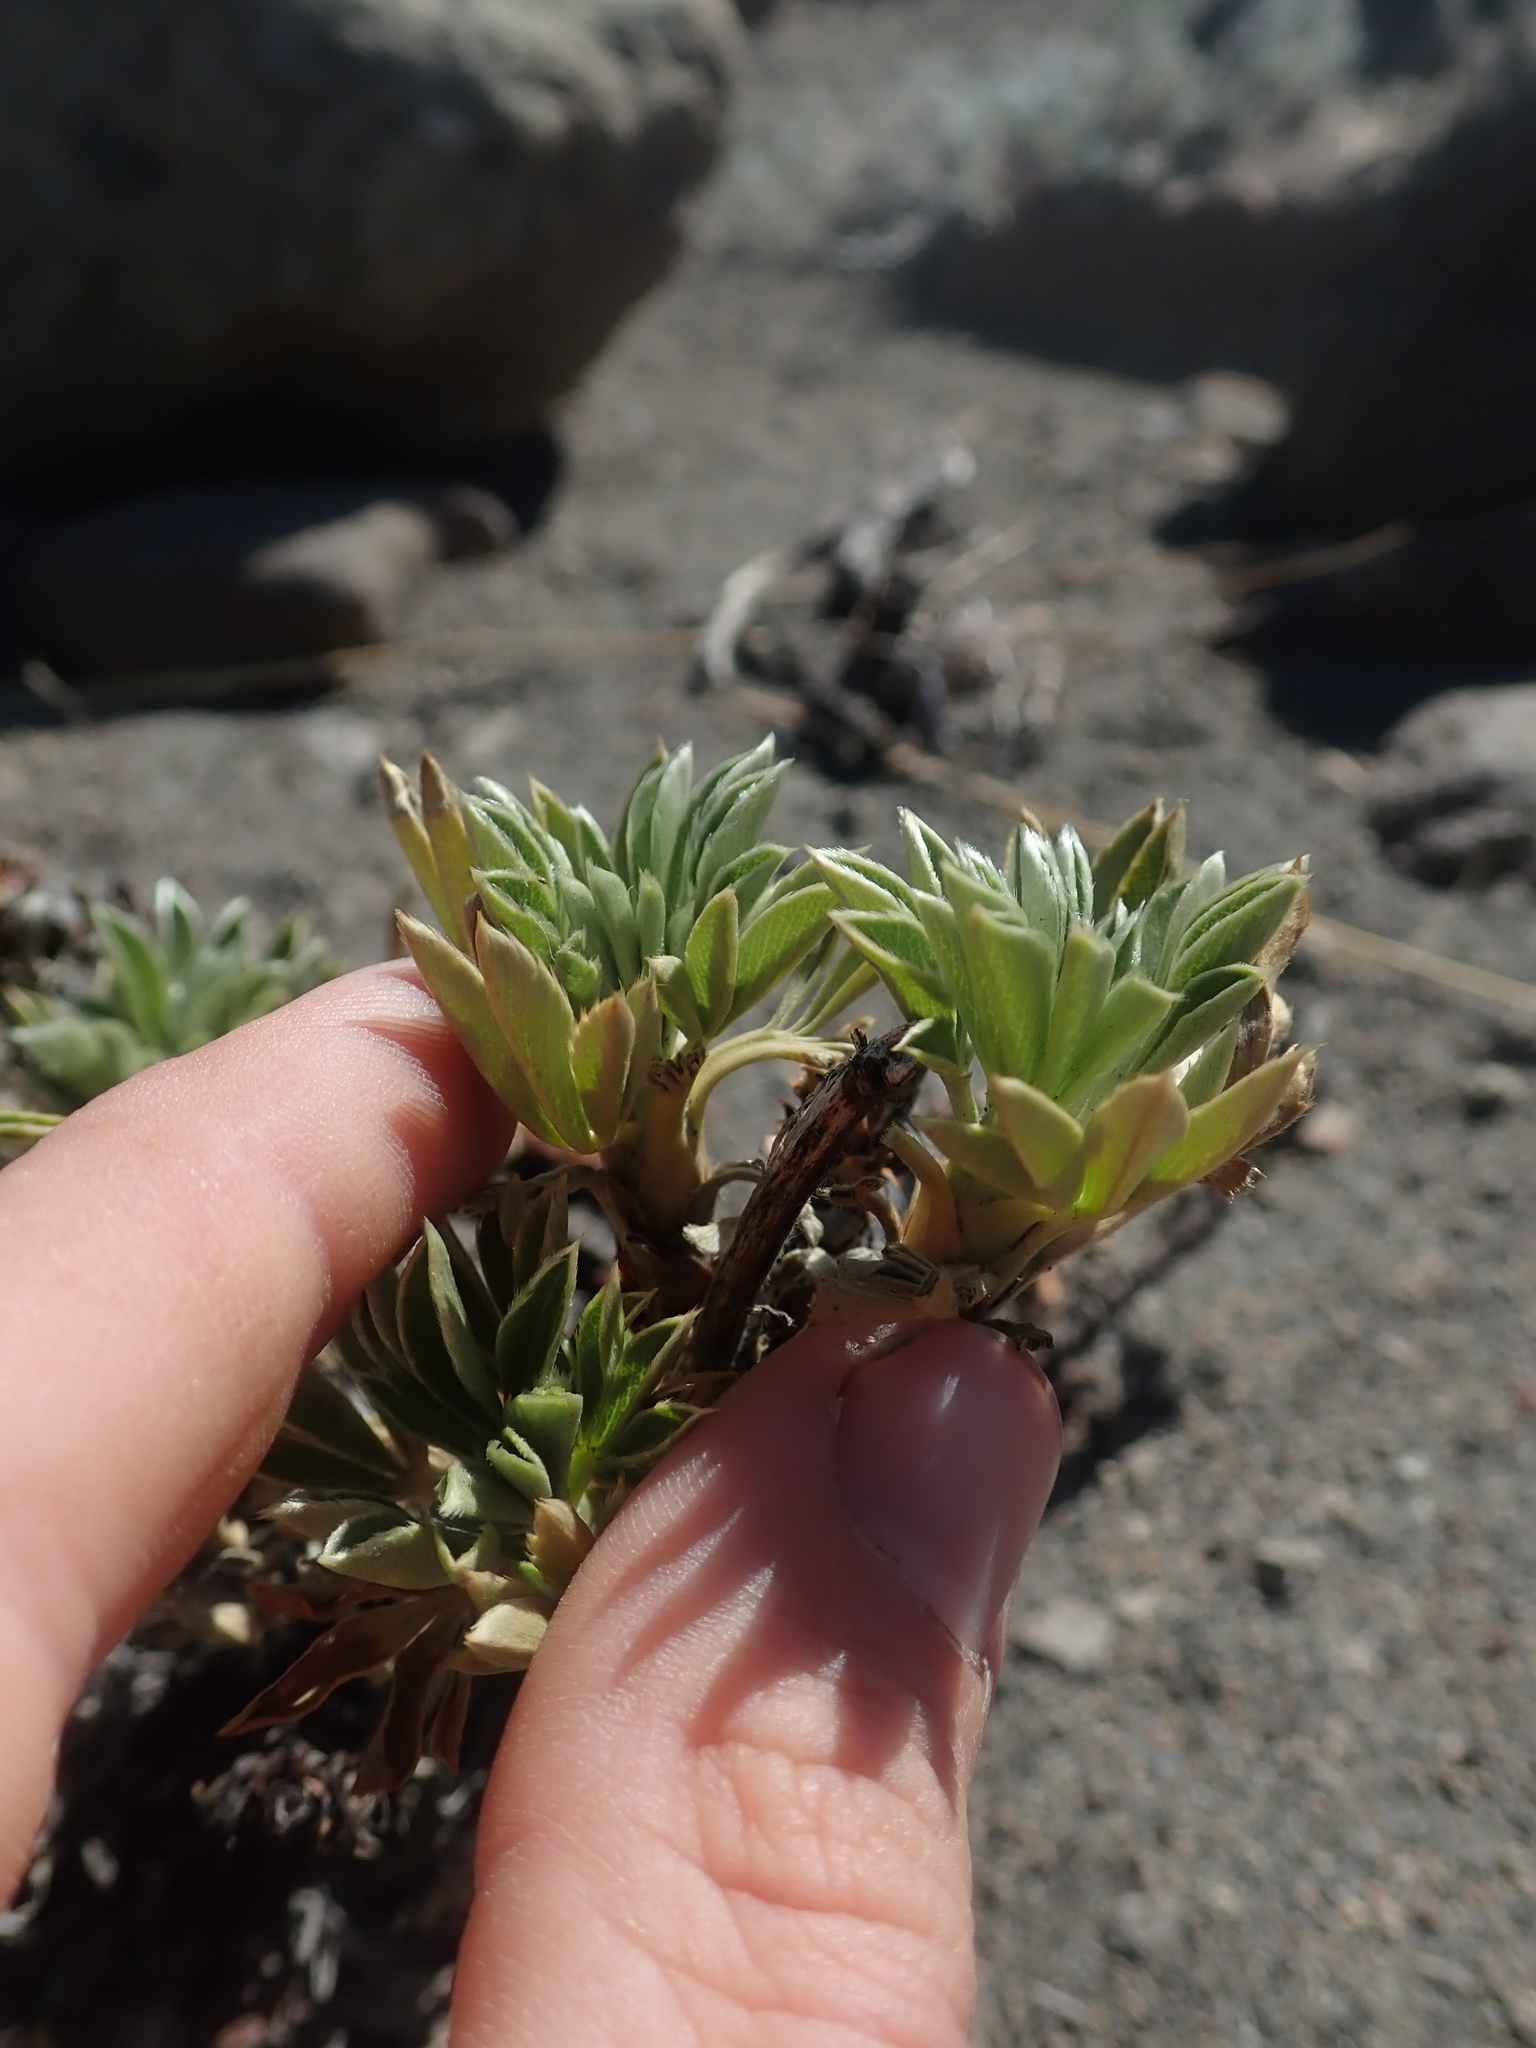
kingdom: Plantae
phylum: Tracheophyta
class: Magnoliopsida
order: Rosales
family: Rosaceae
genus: Acaena
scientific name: Acaena alpina
